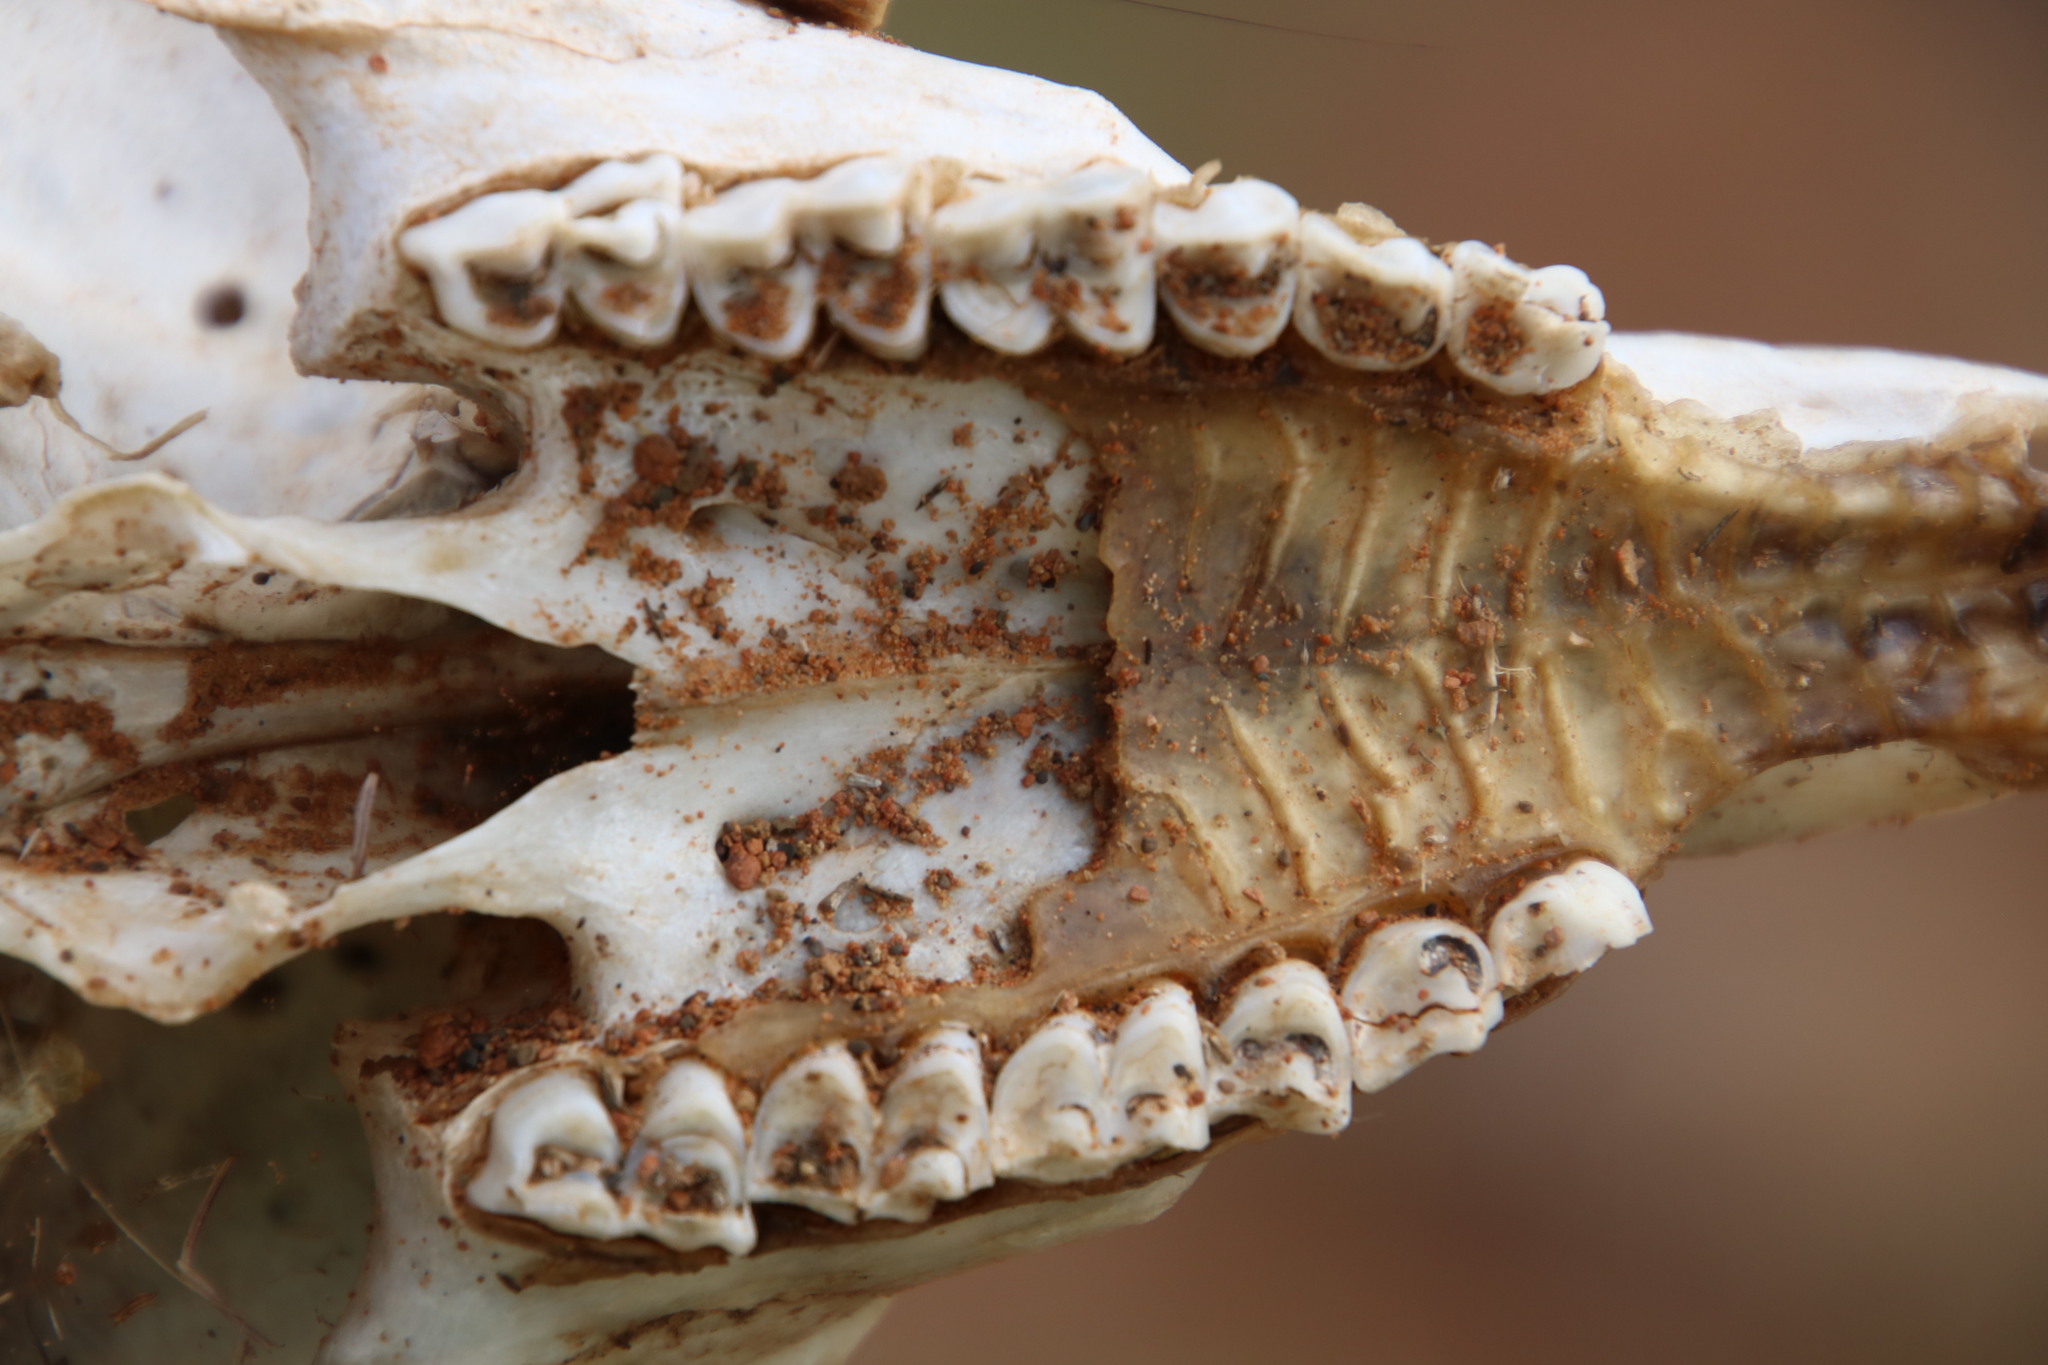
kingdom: Animalia
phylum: Chordata
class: Mammalia
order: Artiodactyla
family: Bovidae
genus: Sylvicapra
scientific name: Sylvicapra grimmia
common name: Bush duiker
